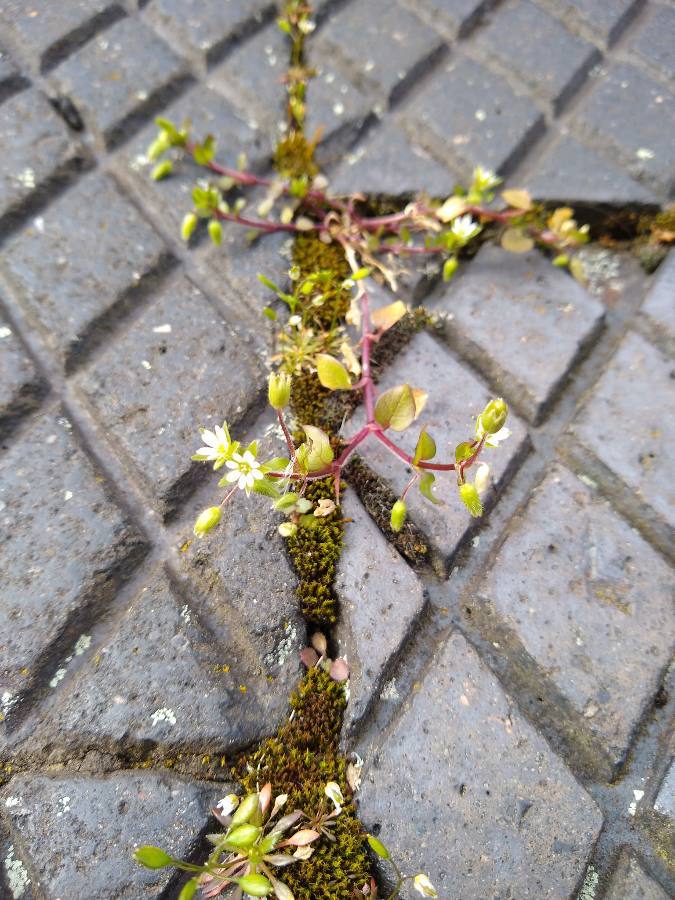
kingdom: Plantae
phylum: Tracheophyta
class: Magnoliopsida
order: Brassicales
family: Brassicaceae
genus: Draba
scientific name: Draba verna
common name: Spring draba
